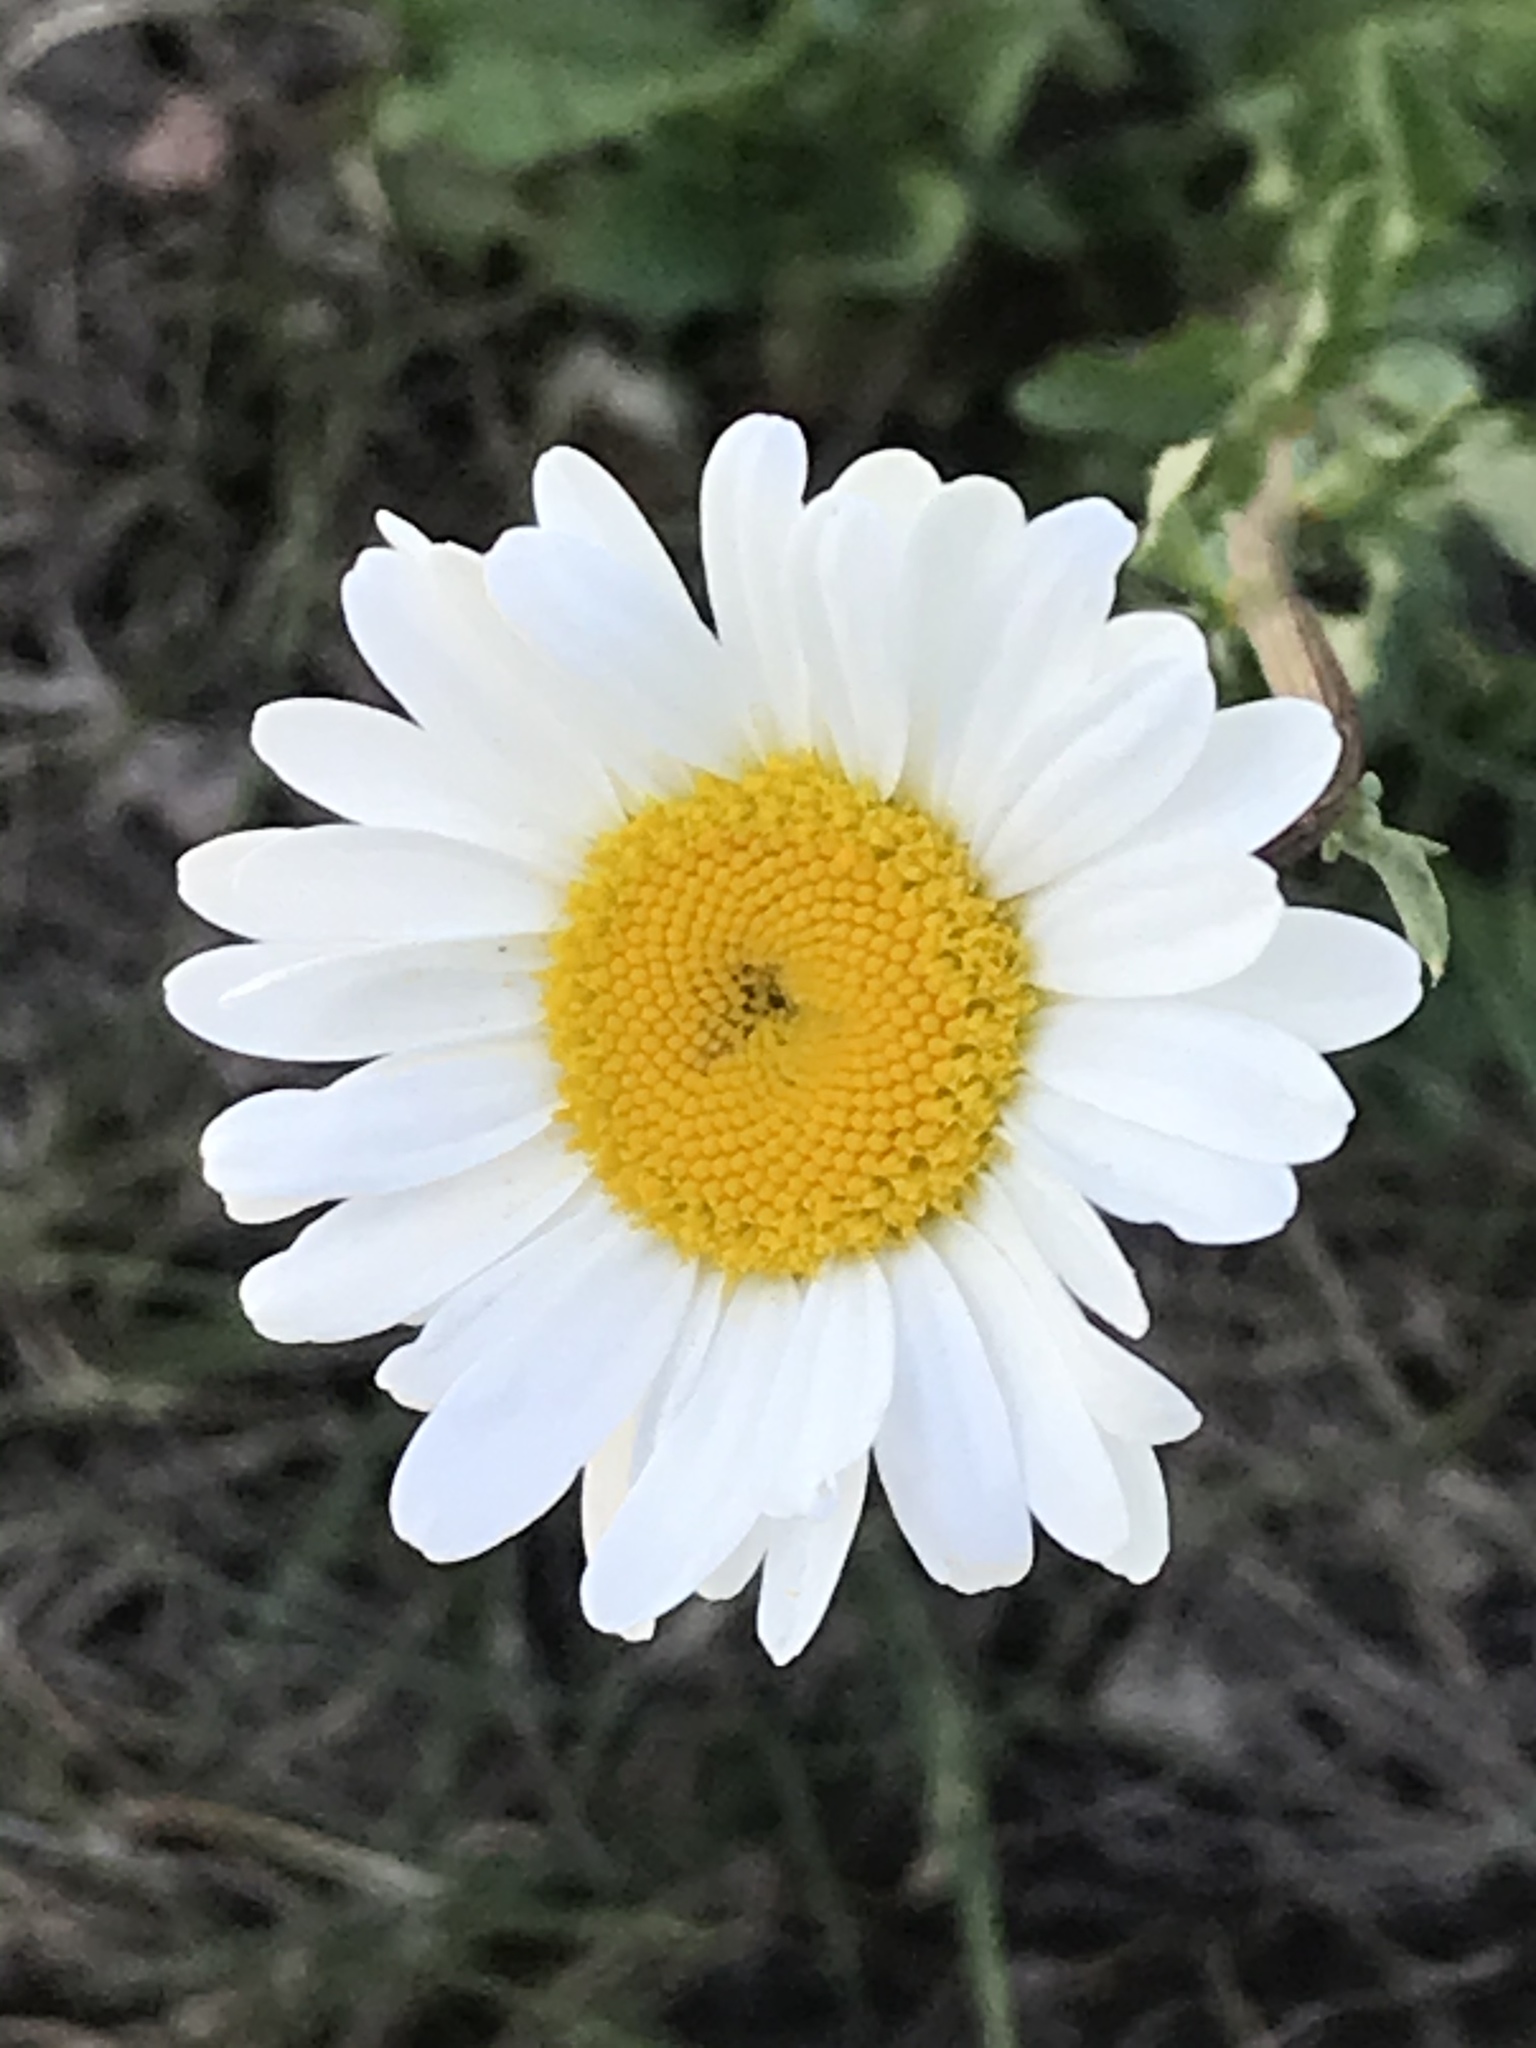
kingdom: Plantae
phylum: Tracheophyta
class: Magnoliopsida
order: Asterales
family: Asteraceae
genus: Leucanthemum
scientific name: Leucanthemum vulgare
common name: Oxeye daisy
